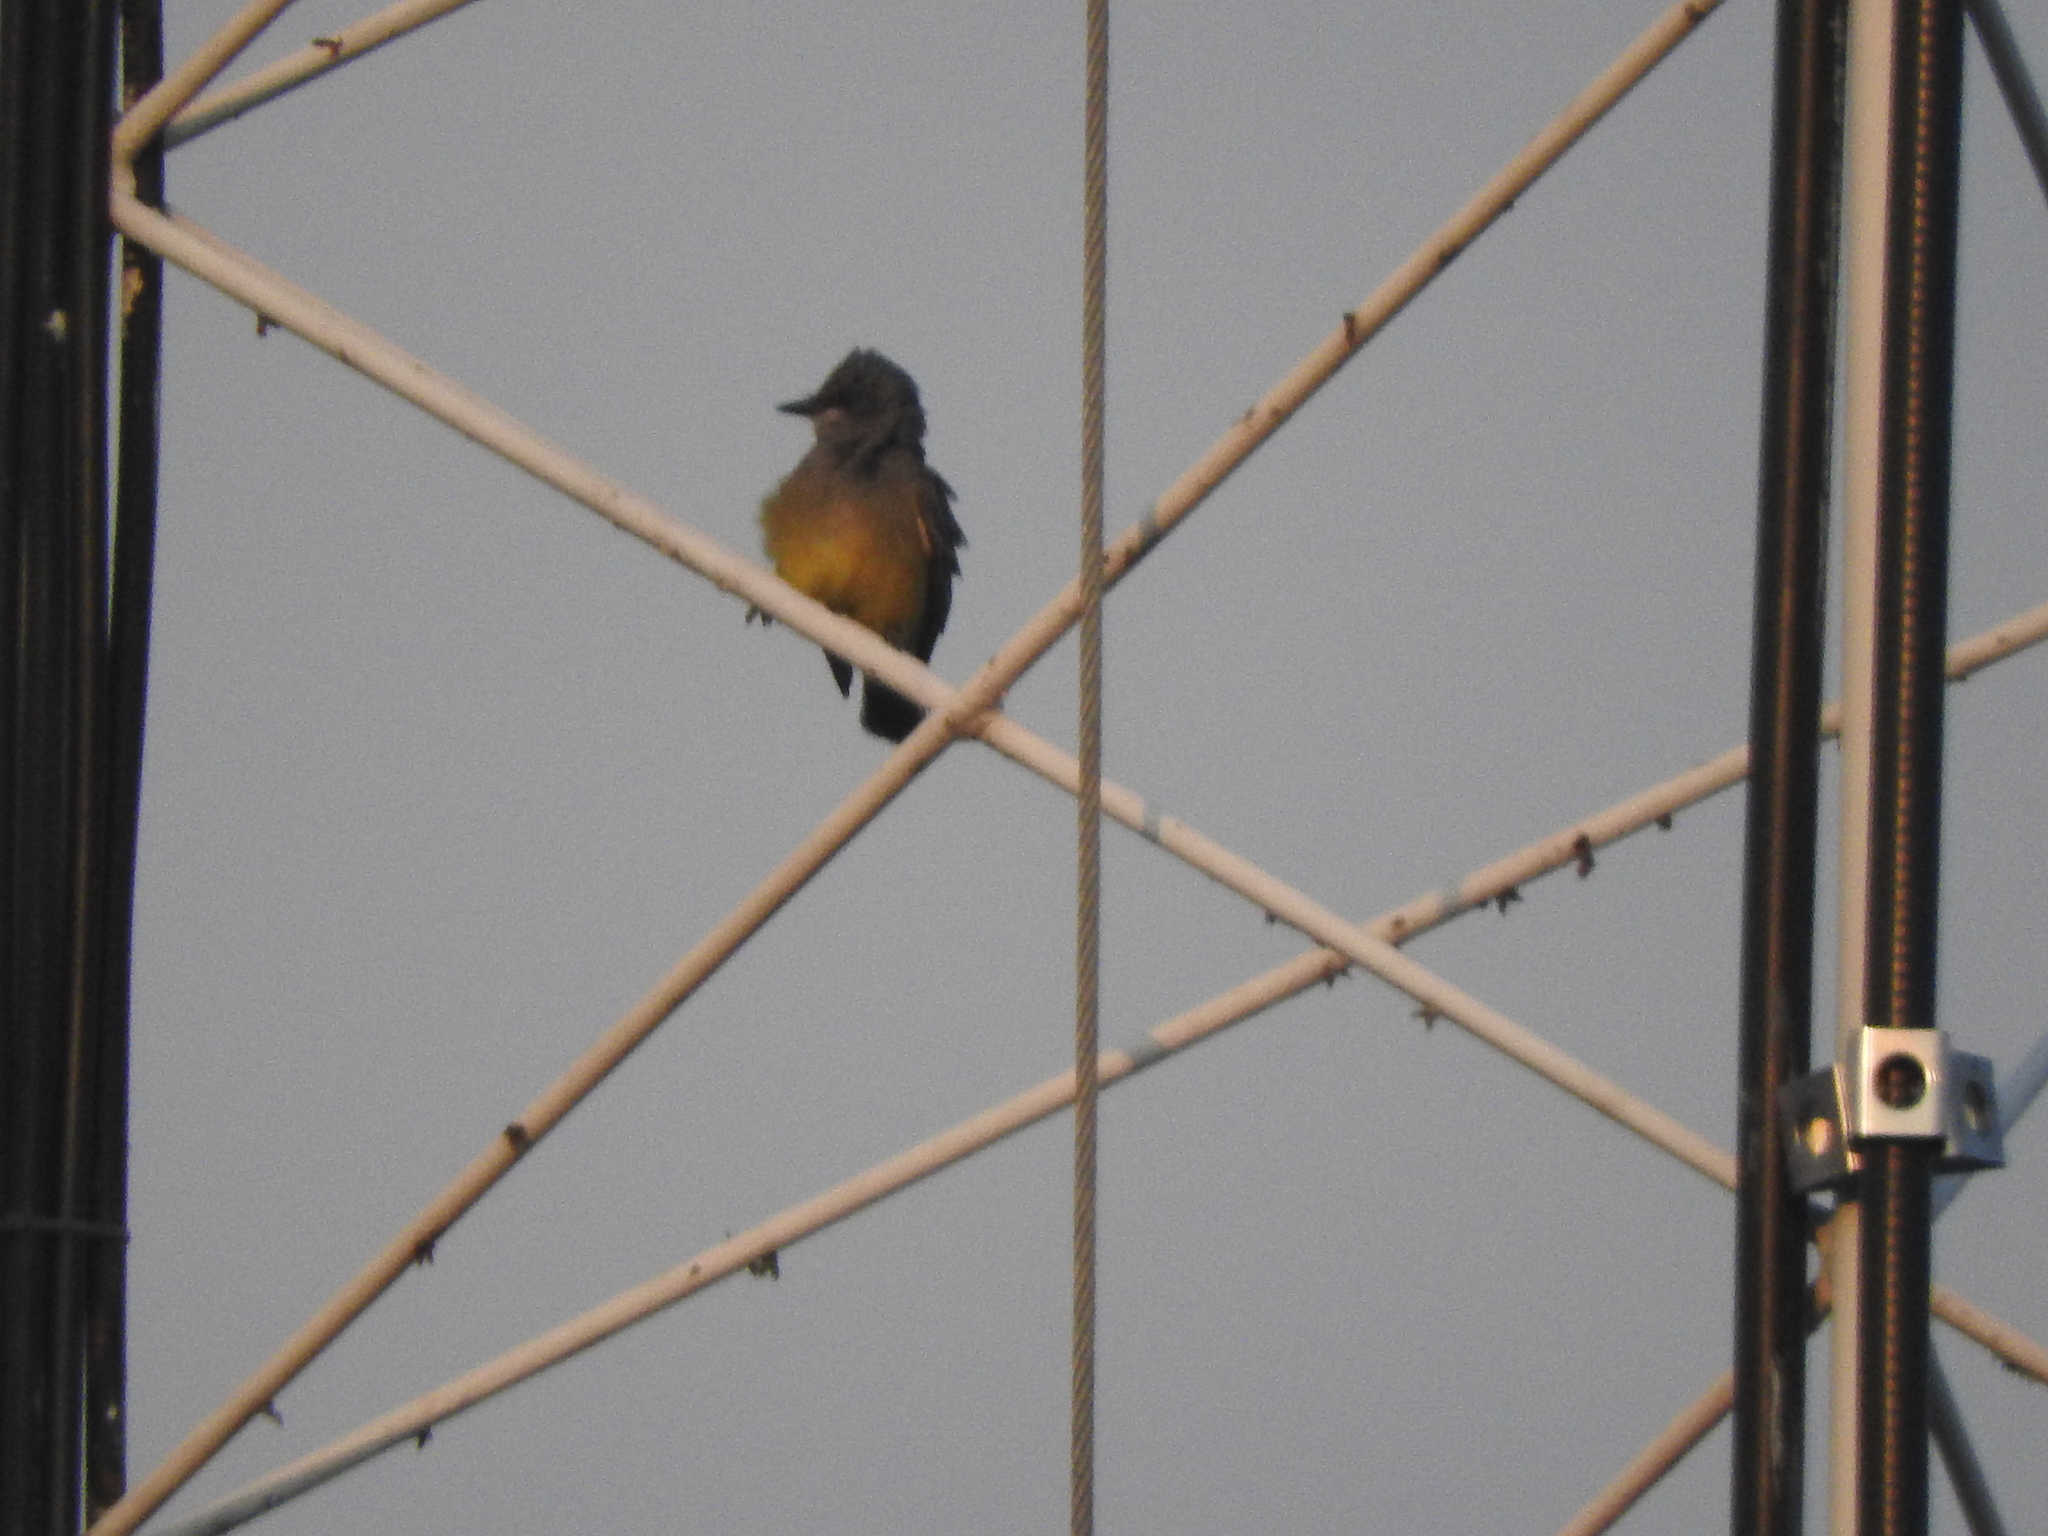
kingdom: Animalia
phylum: Chordata
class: Aves
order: Passeriformes
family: Tyrannidae
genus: Tyrannus
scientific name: Tyrannus vociferans
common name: Cassin's kingbird
